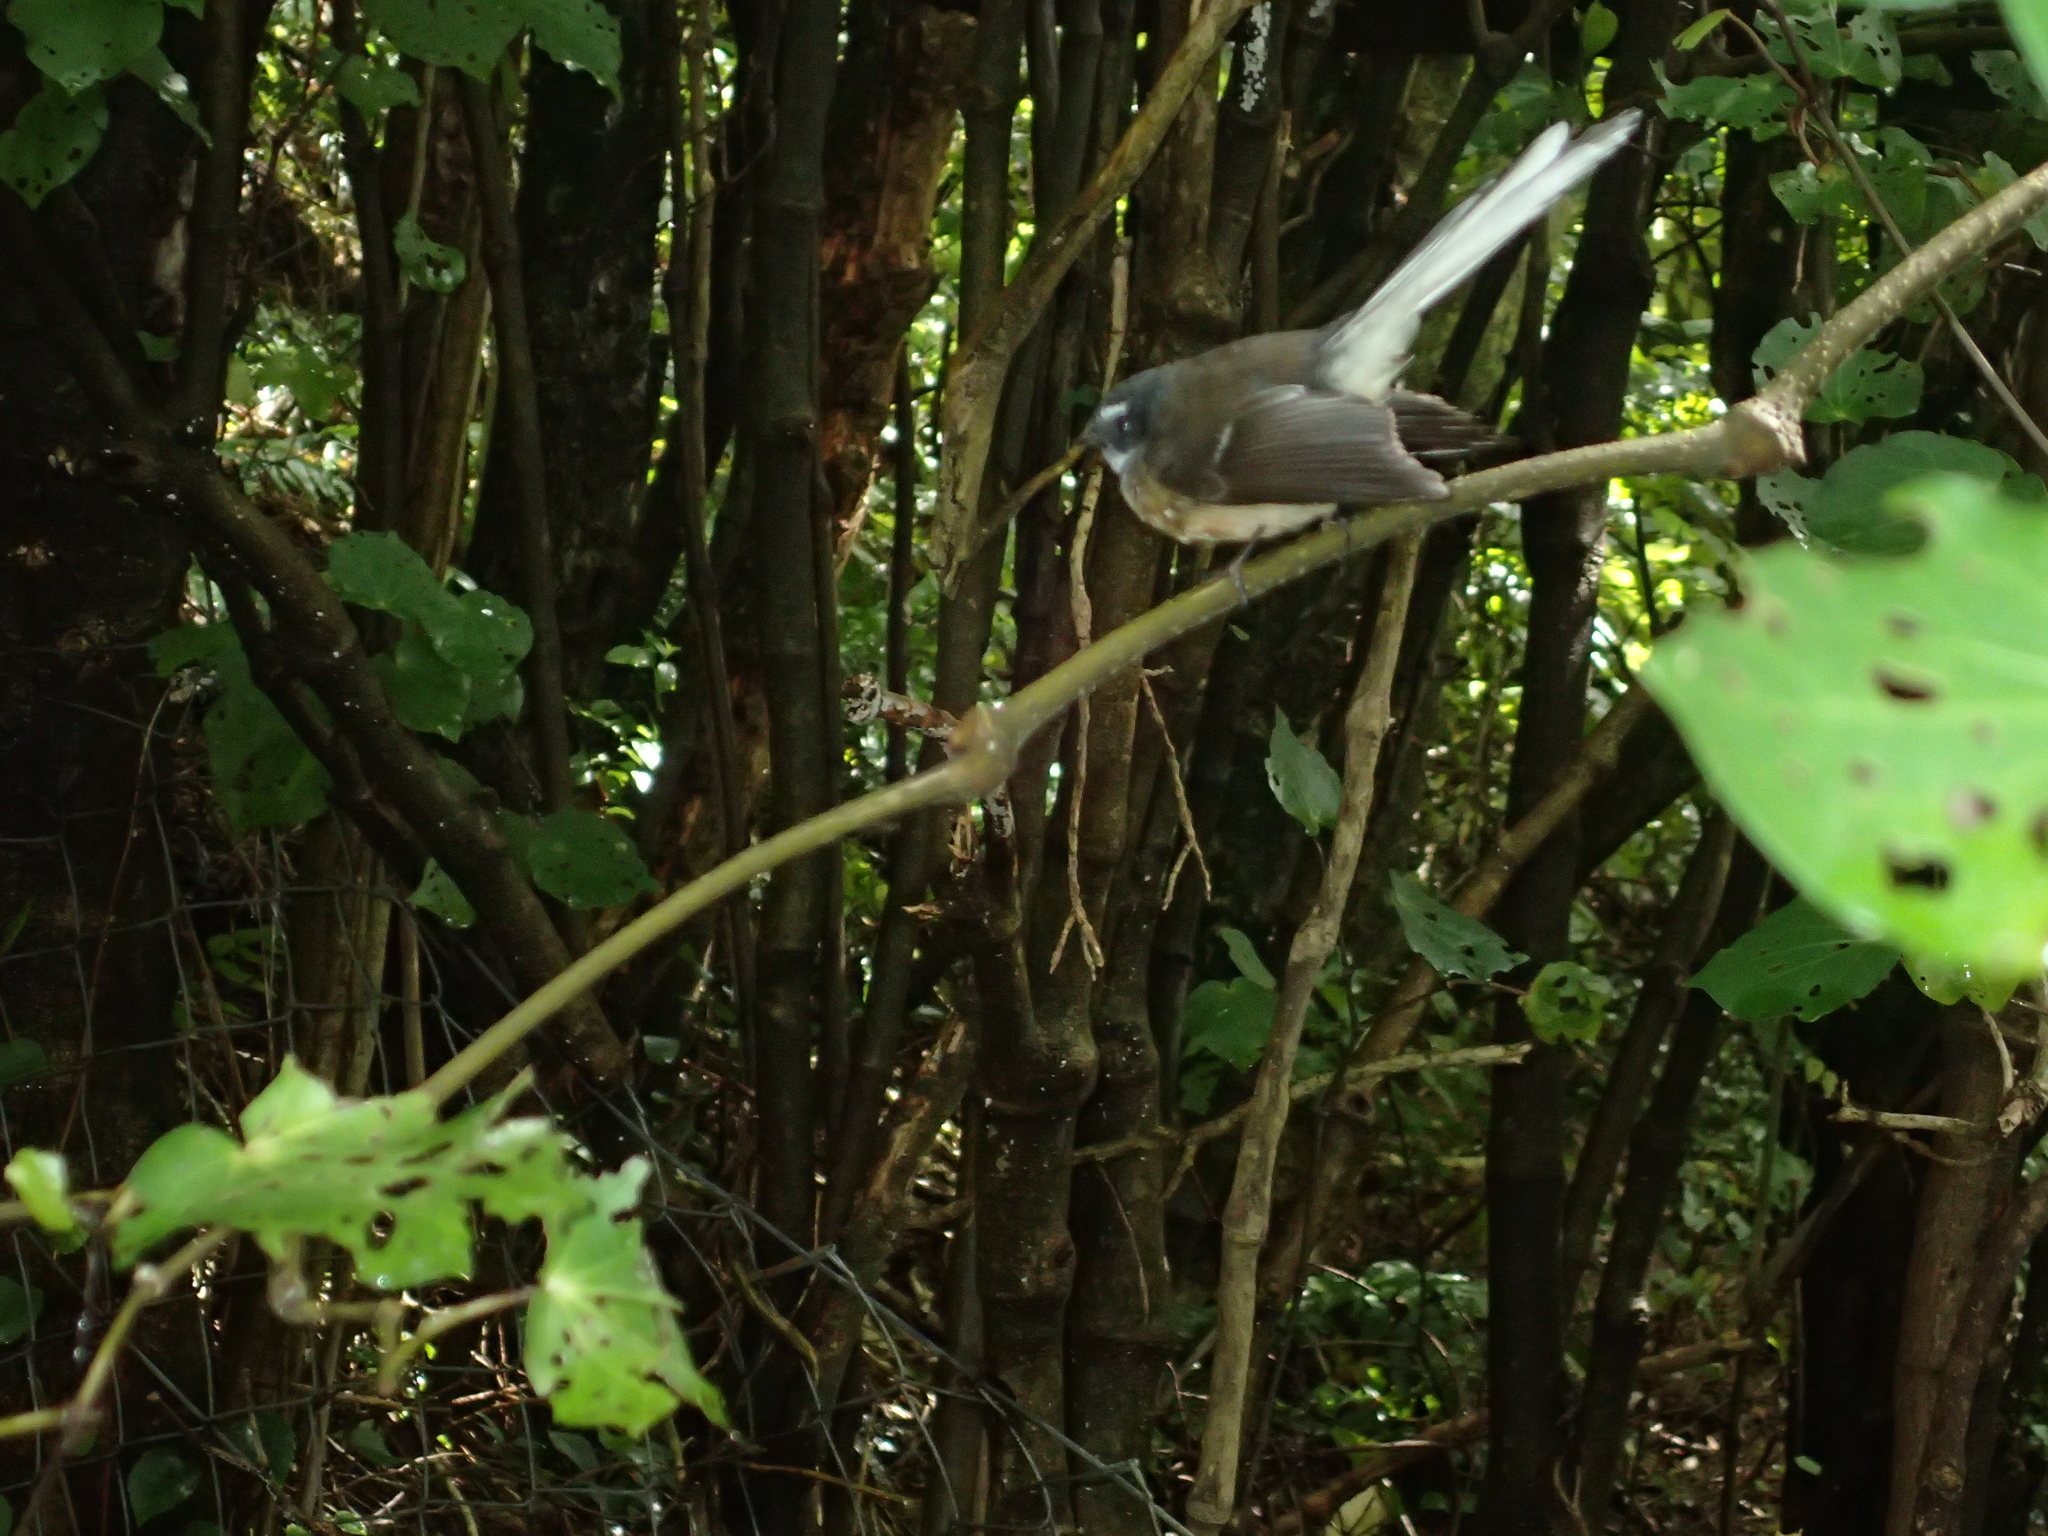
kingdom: Animalia
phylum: Chordata
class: Aves
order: Passeriformes
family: Rhipiduridae
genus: Rhipidura
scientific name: Rhipidura fuliginosa
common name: New zealand fantail
